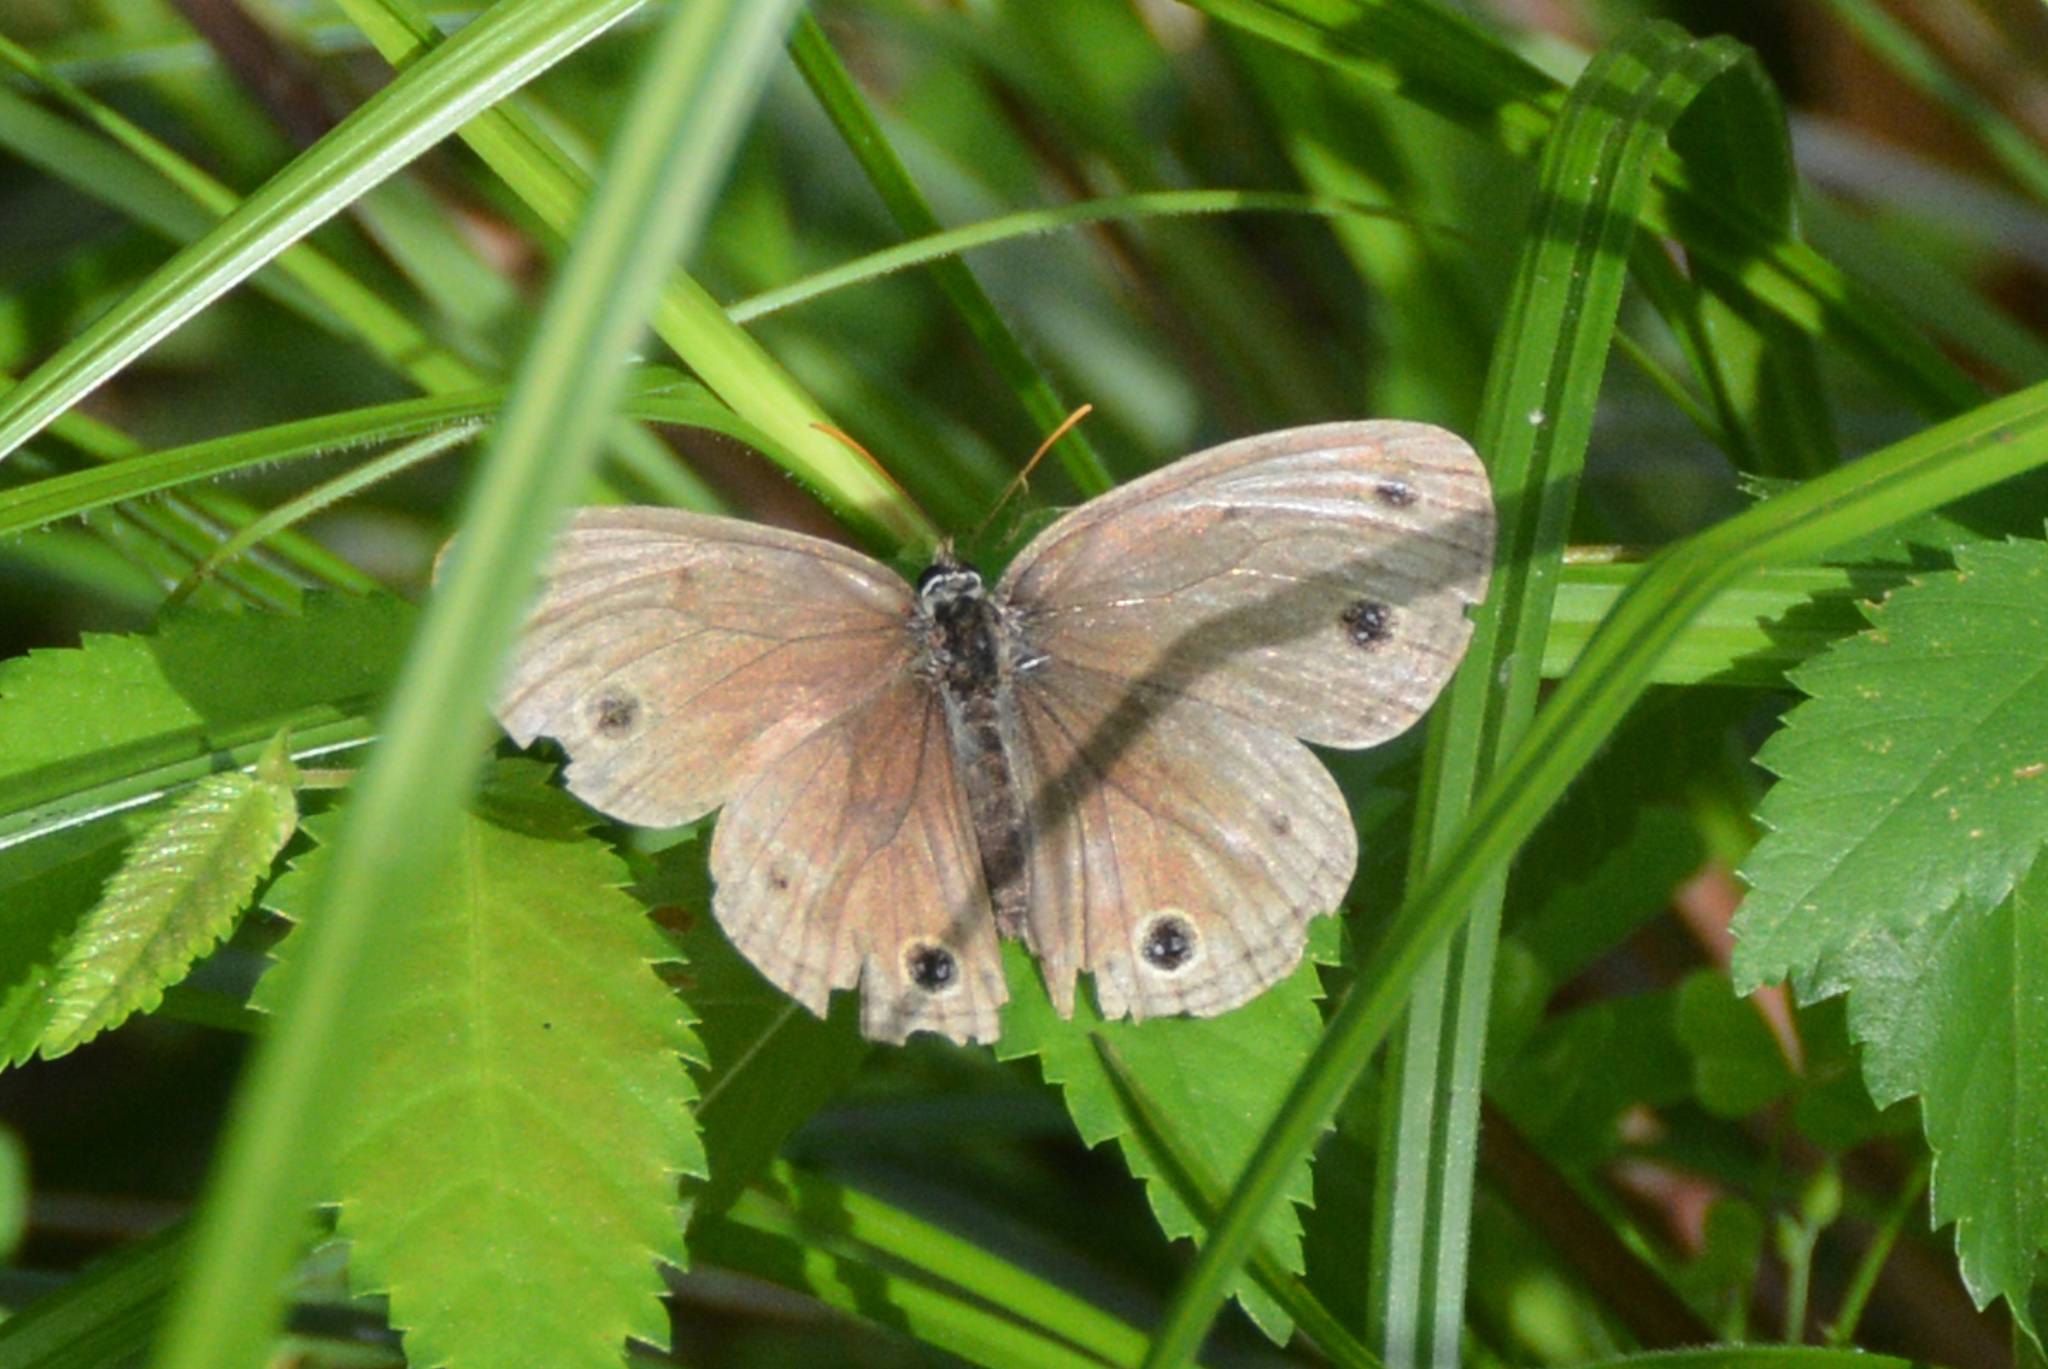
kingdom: Animalia
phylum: Arthropoda
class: Insecta
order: Lepidoptera
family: Nymphalidae
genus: Euptychia
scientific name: Euptychia cymela
